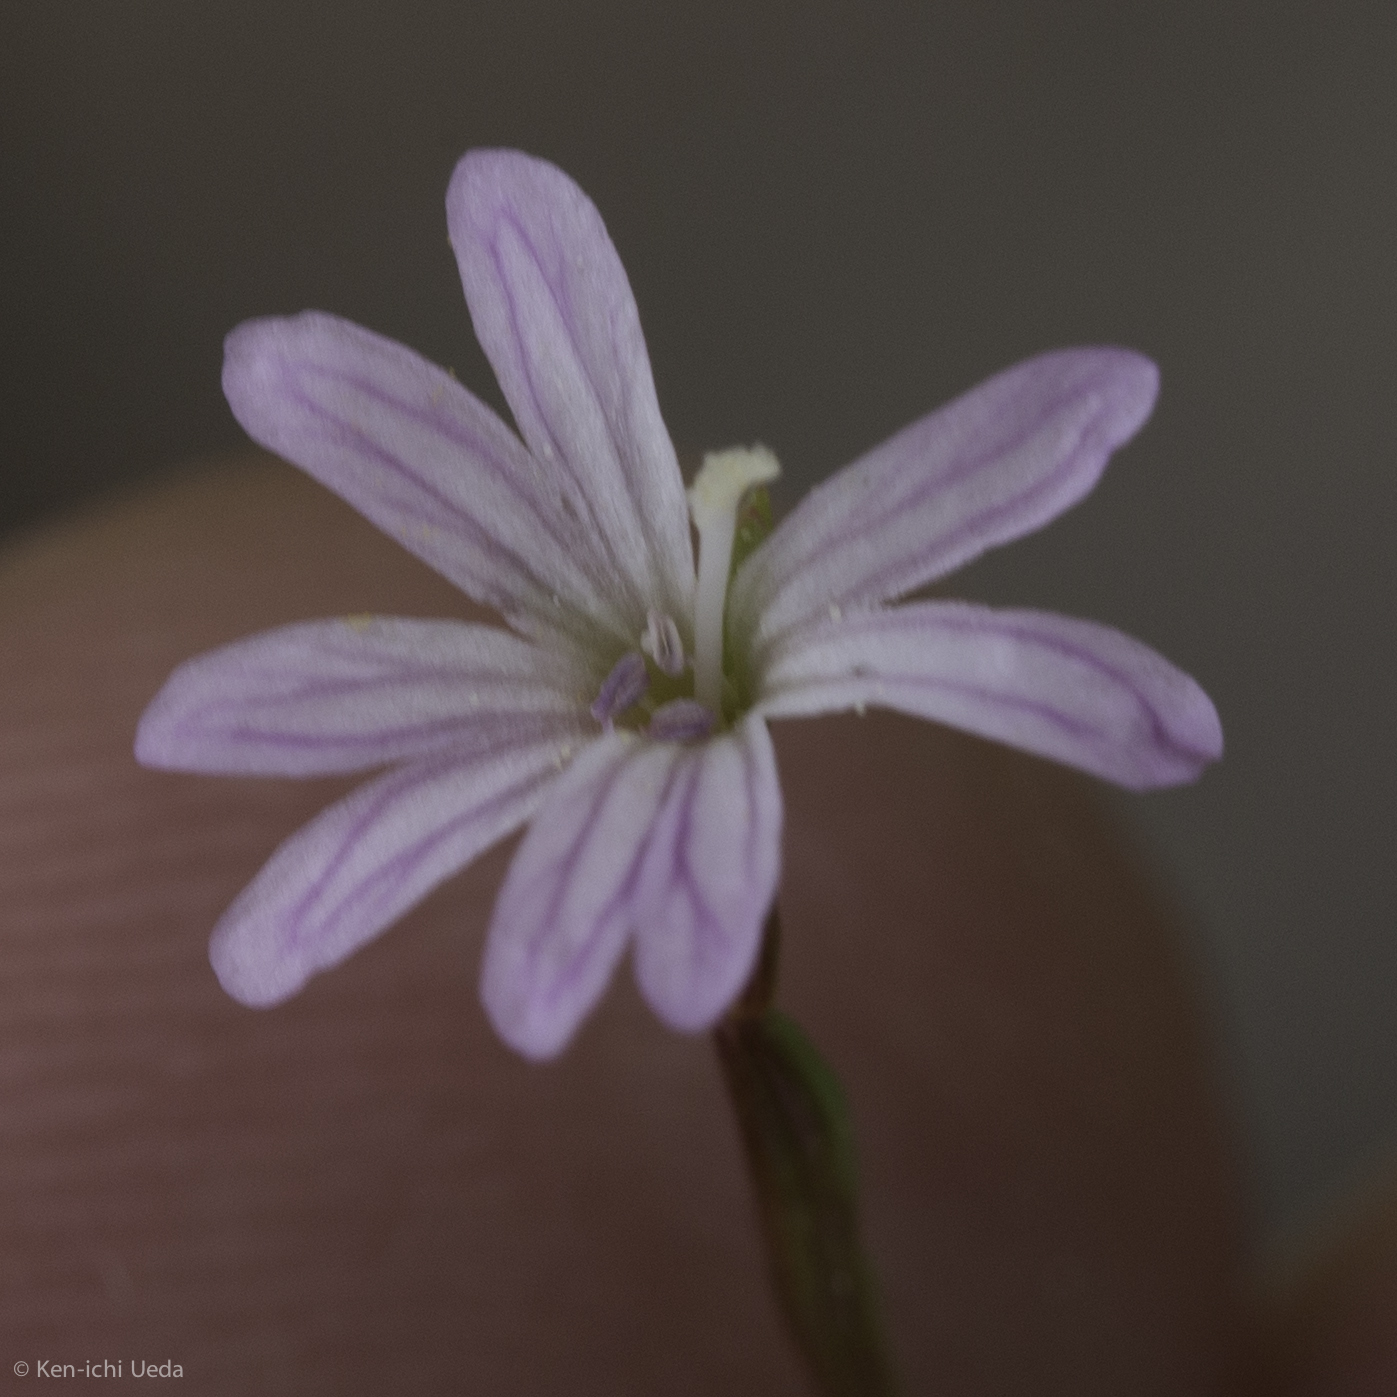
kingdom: Plantae
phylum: Tracheophyta
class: Magnoliopsida
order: Myrtales
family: Onagraceae
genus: Epilobium
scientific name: Epilobium brachycarpum
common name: Annual willowherb
